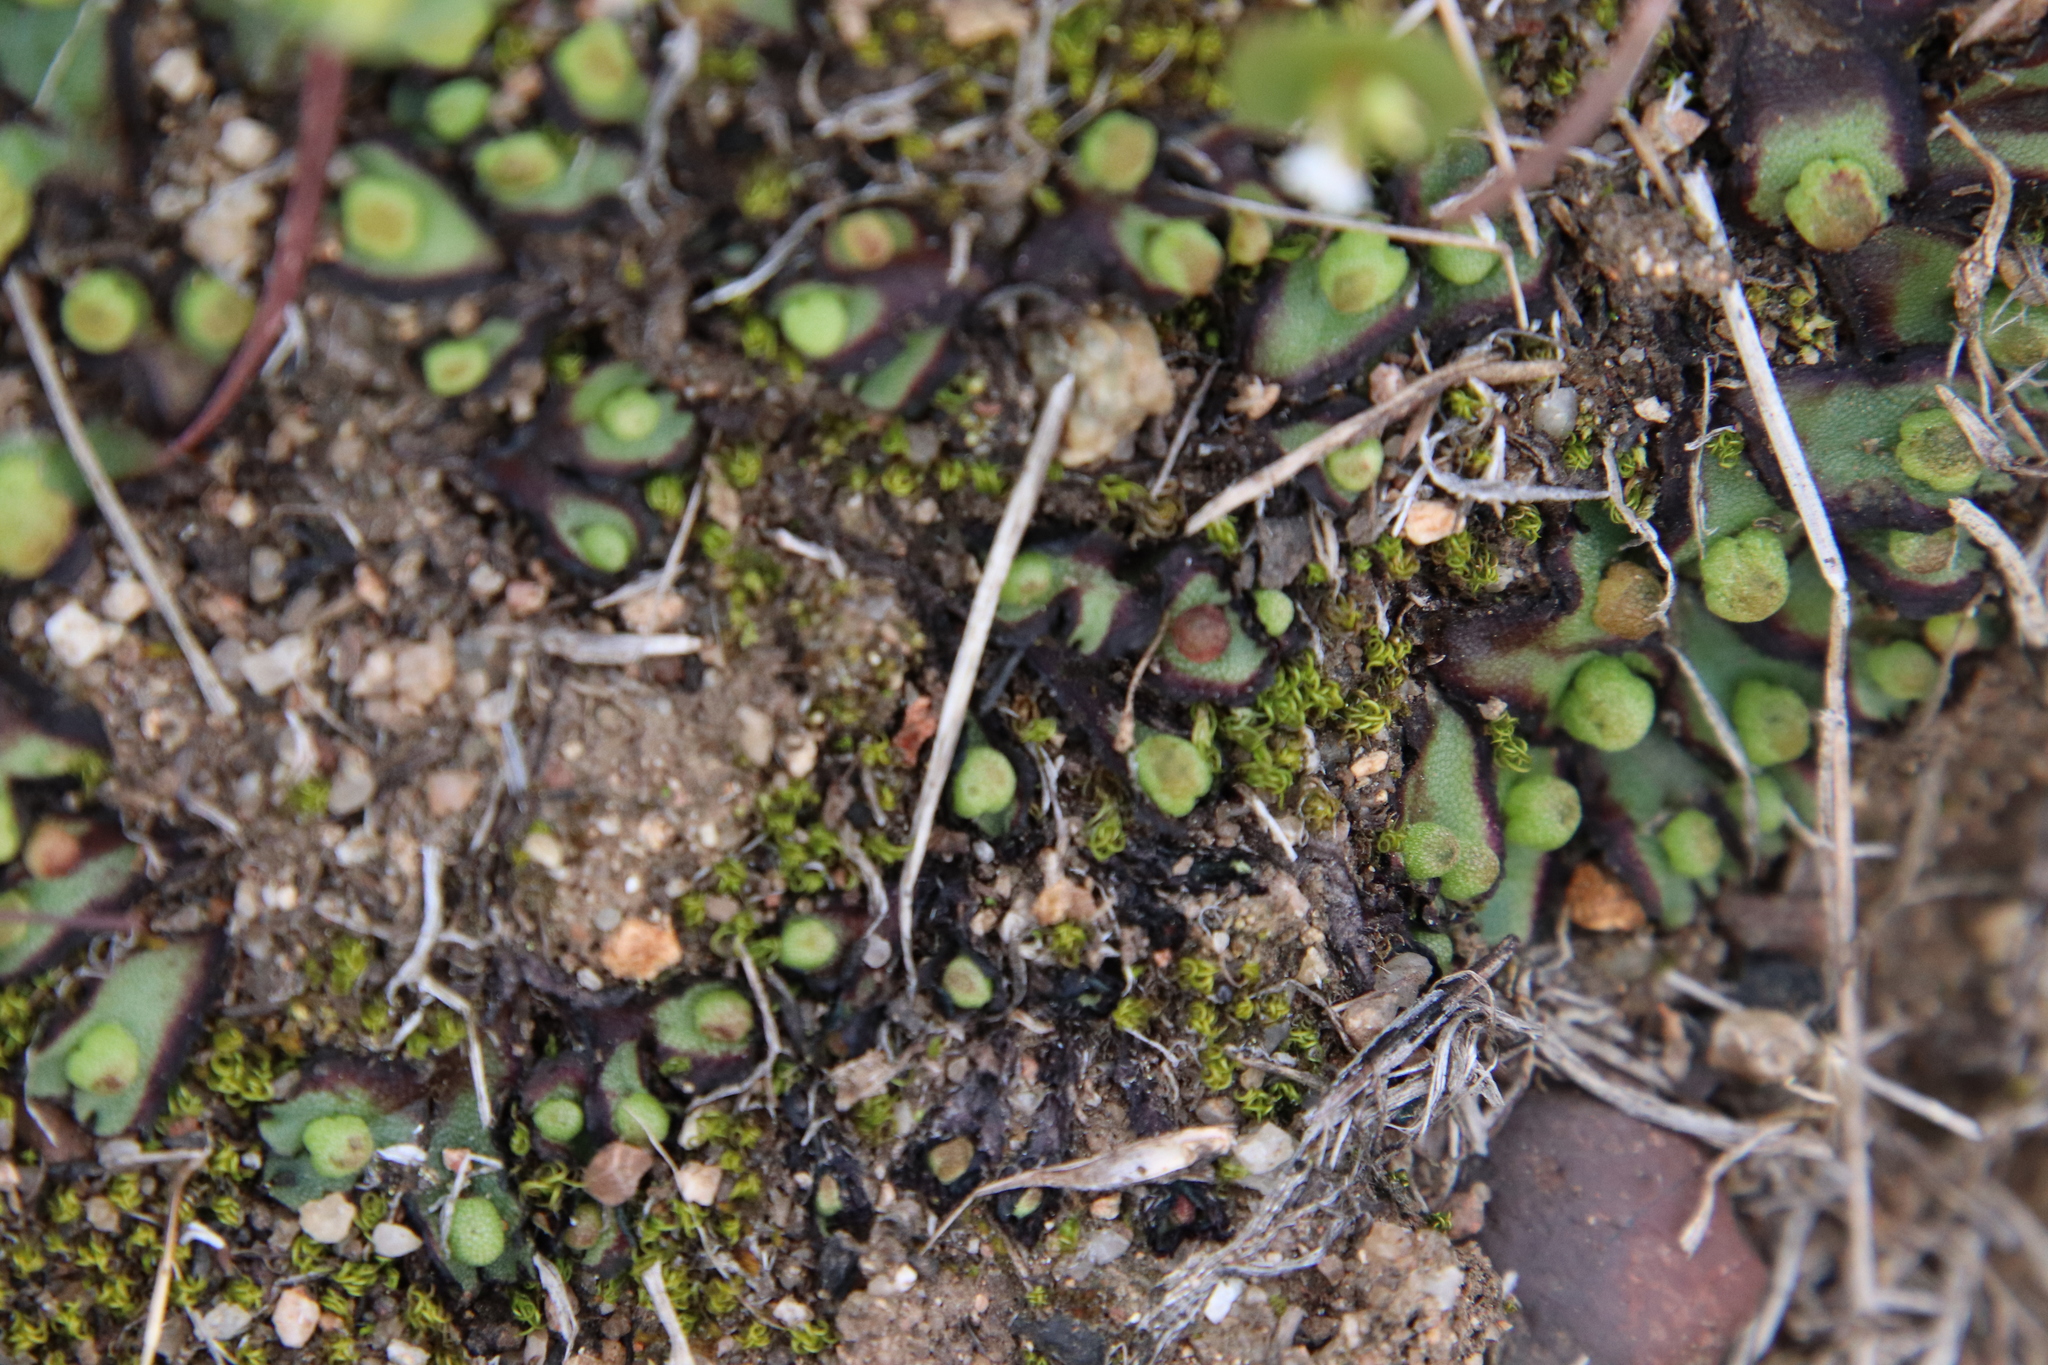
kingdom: Plantae
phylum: Marchantiophyta
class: Marchantiopsida
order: Marchantiales
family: Aytoniaceae
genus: Asterella
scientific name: Asterella californica
